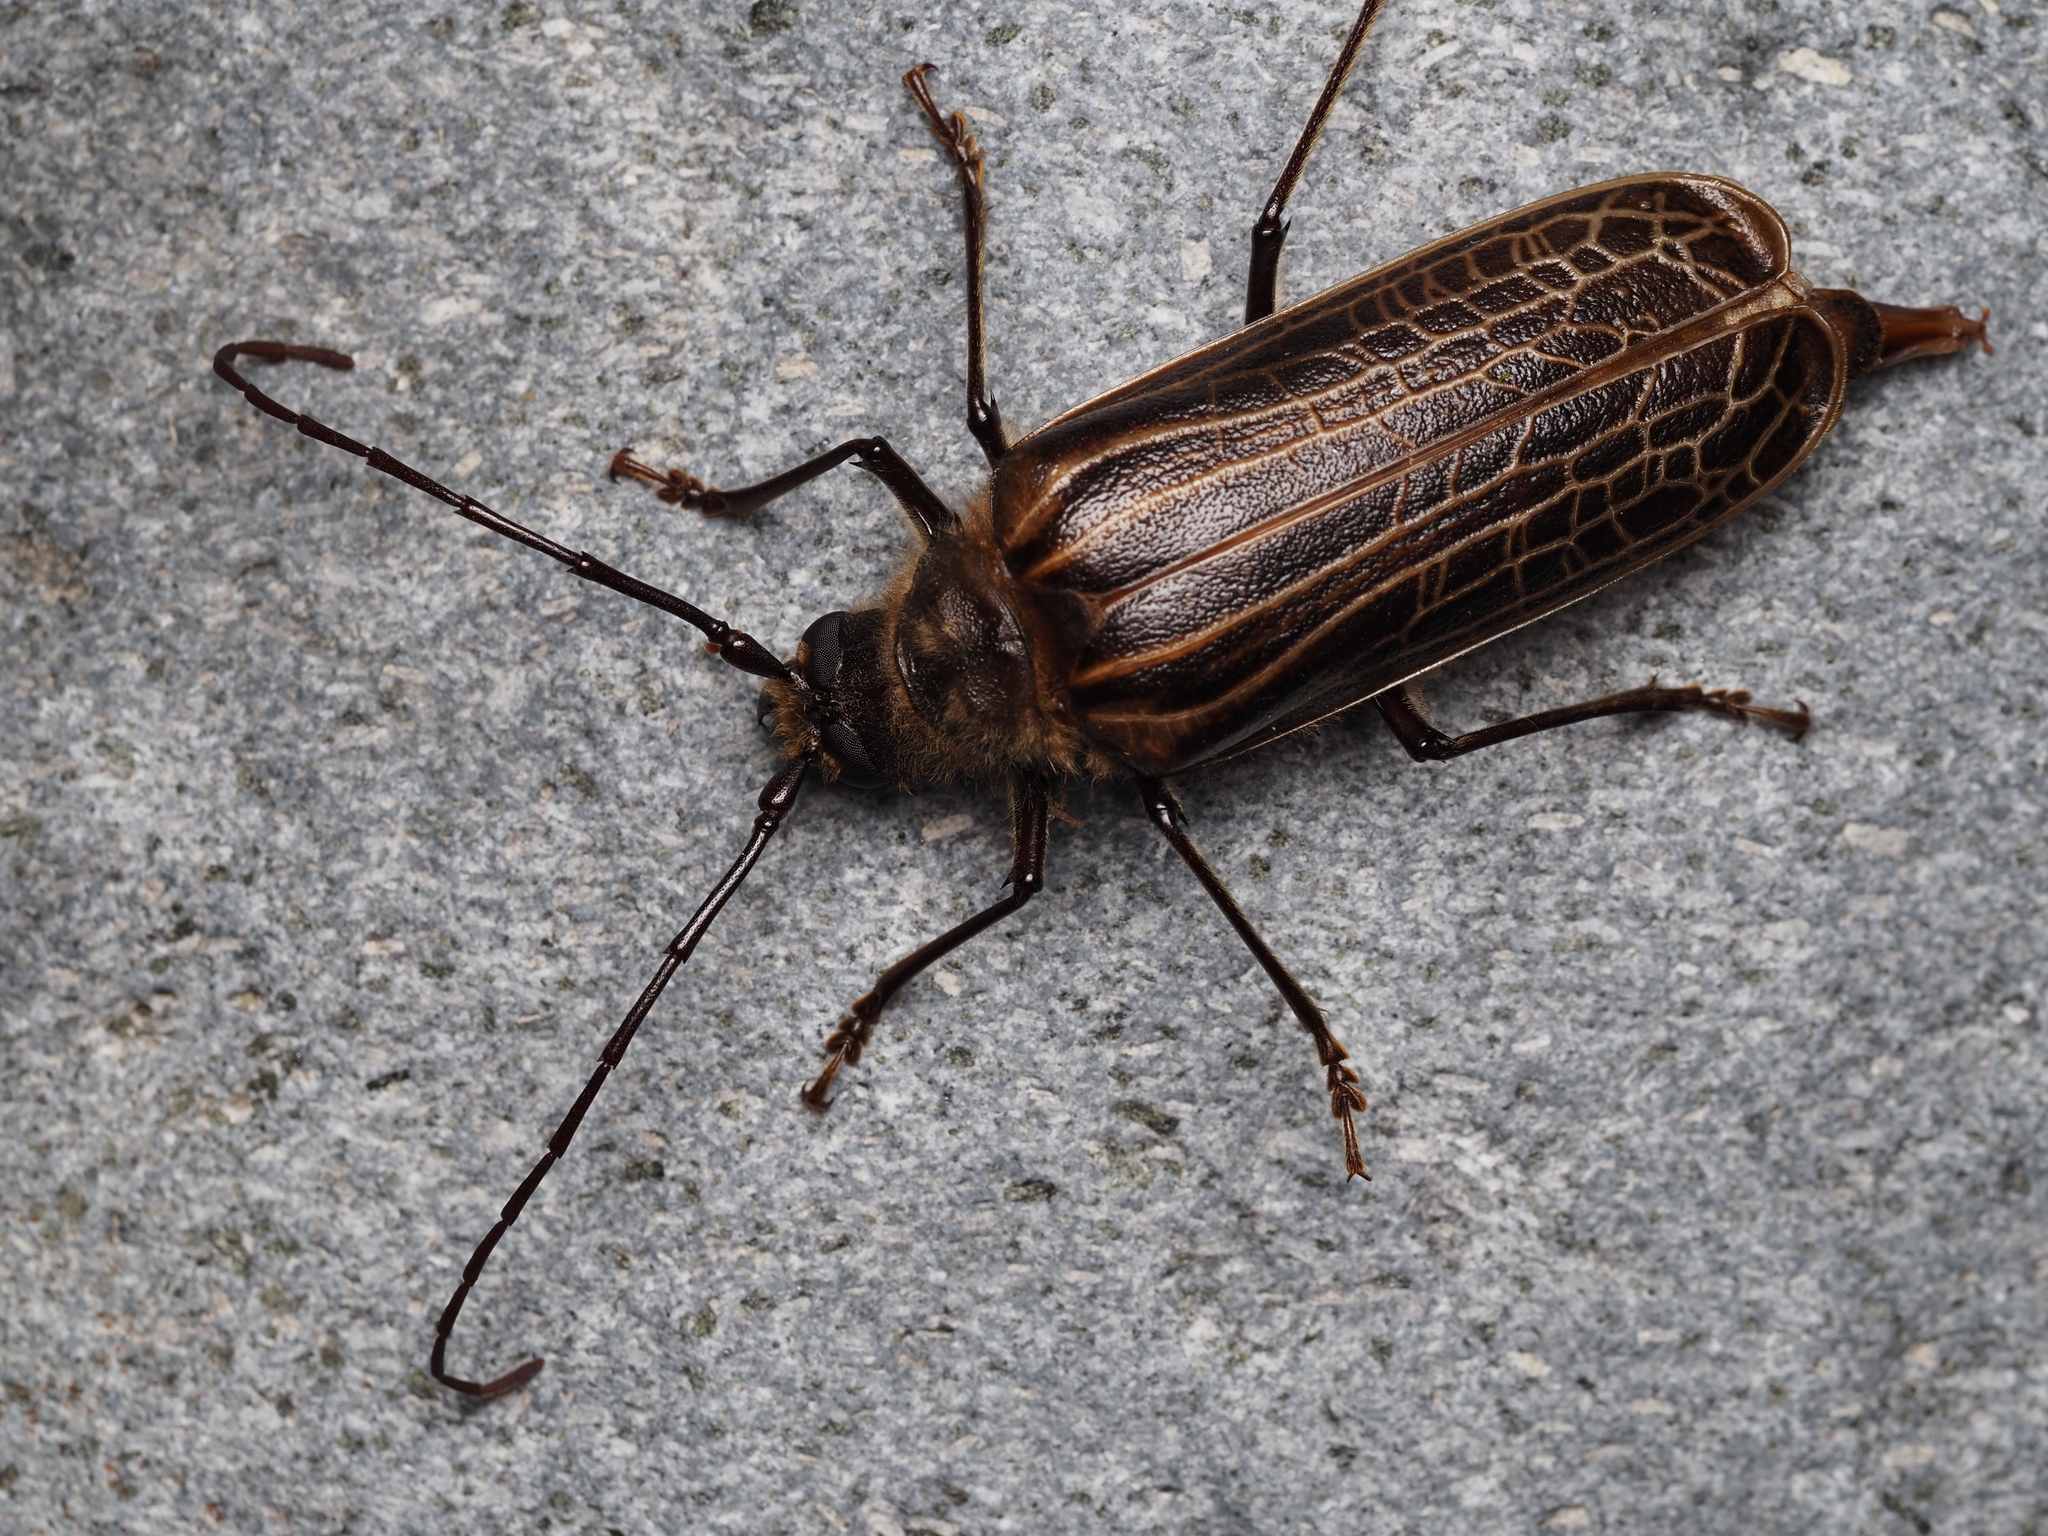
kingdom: Animalia
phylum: Arthropoda
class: Insecta
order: Coleoptera
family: Cerambycidae
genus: Prionoplus
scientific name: Prionoplus reticularis
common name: Huhu beetle
